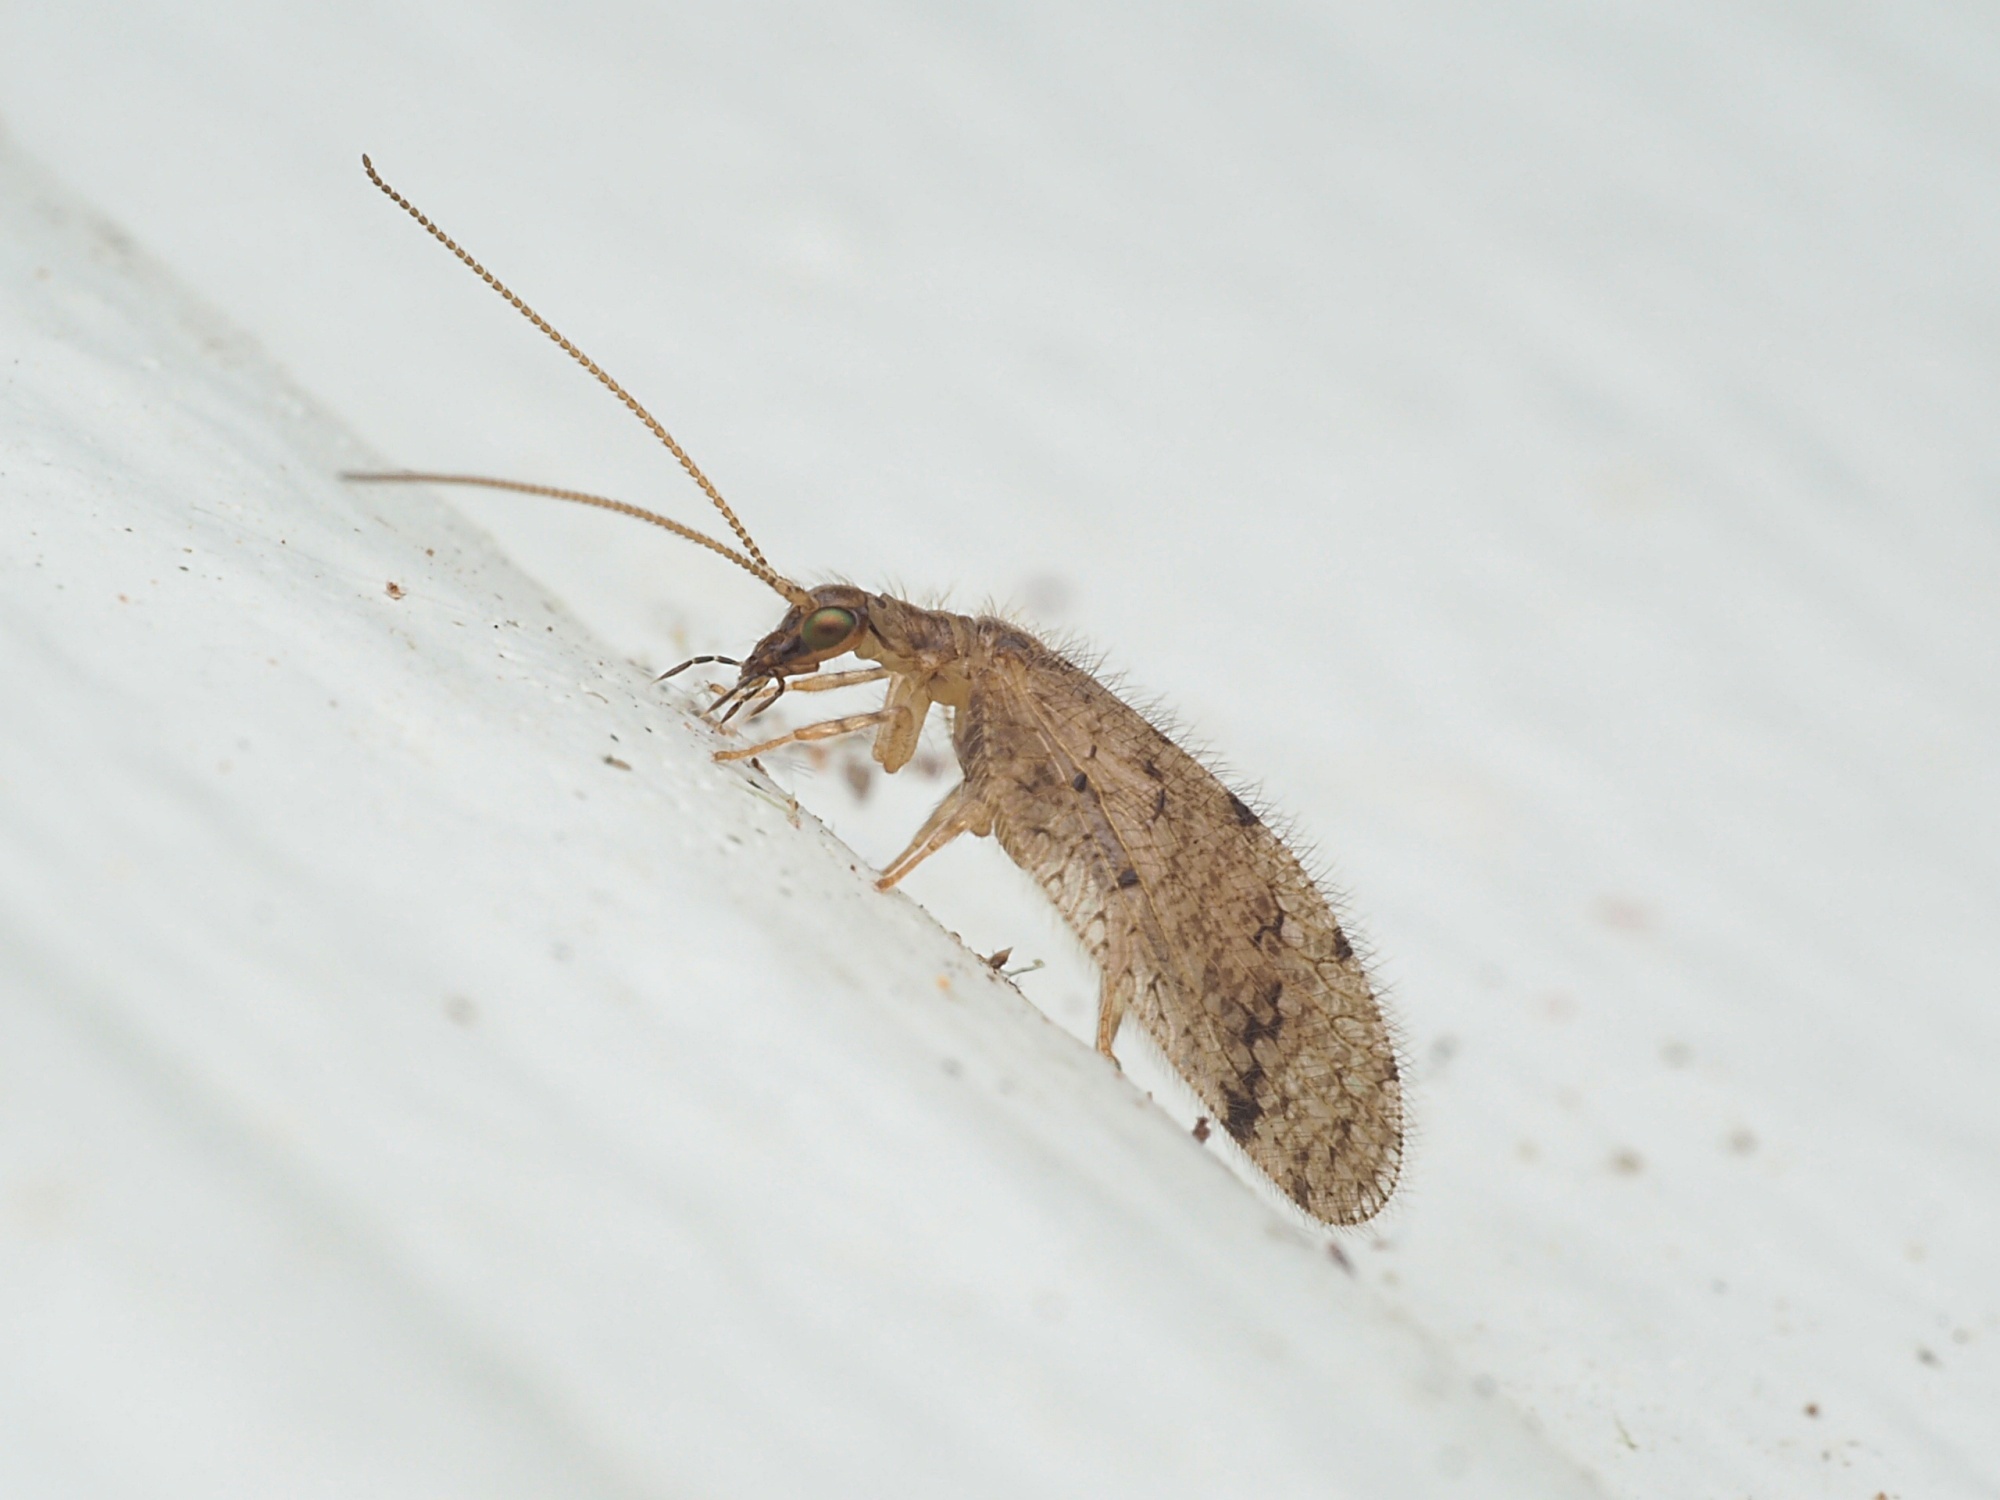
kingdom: Animalia
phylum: Arthropoda
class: Insecta
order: Neuroptera
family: Hemerobiidae
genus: Psectra
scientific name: Psectra nakaharai
